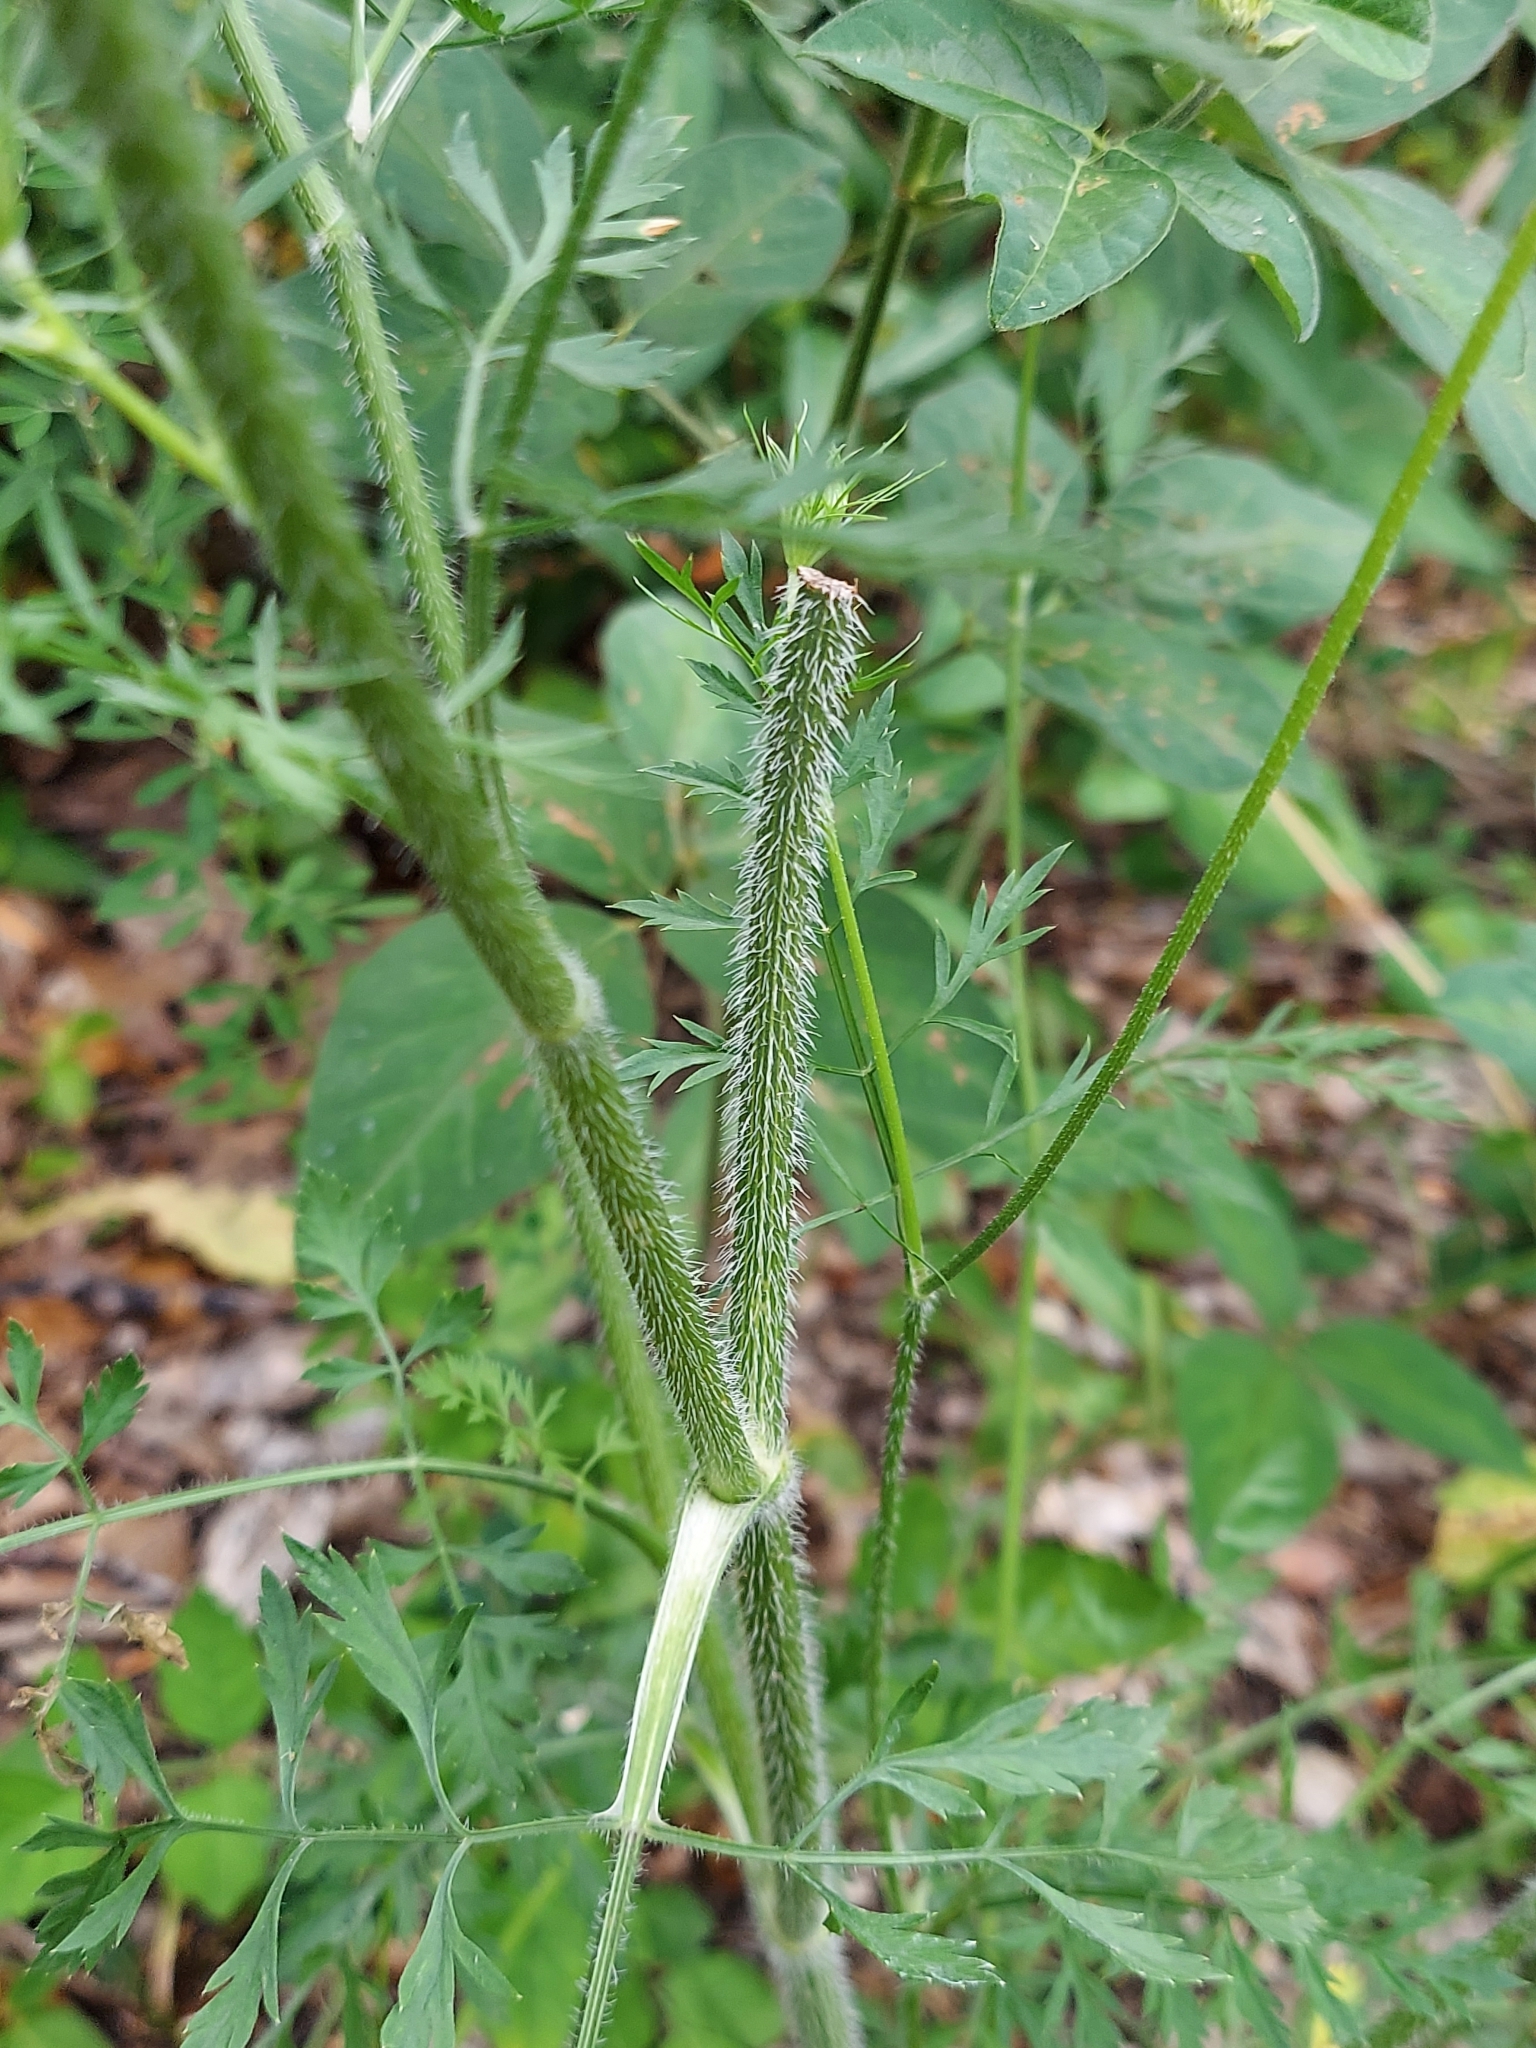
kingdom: Plantae
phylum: Tracheophyta
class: Magnoliopsida
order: Apiales
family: Apiaceae
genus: Daucus
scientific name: Daucus carota
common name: Wild carrot
